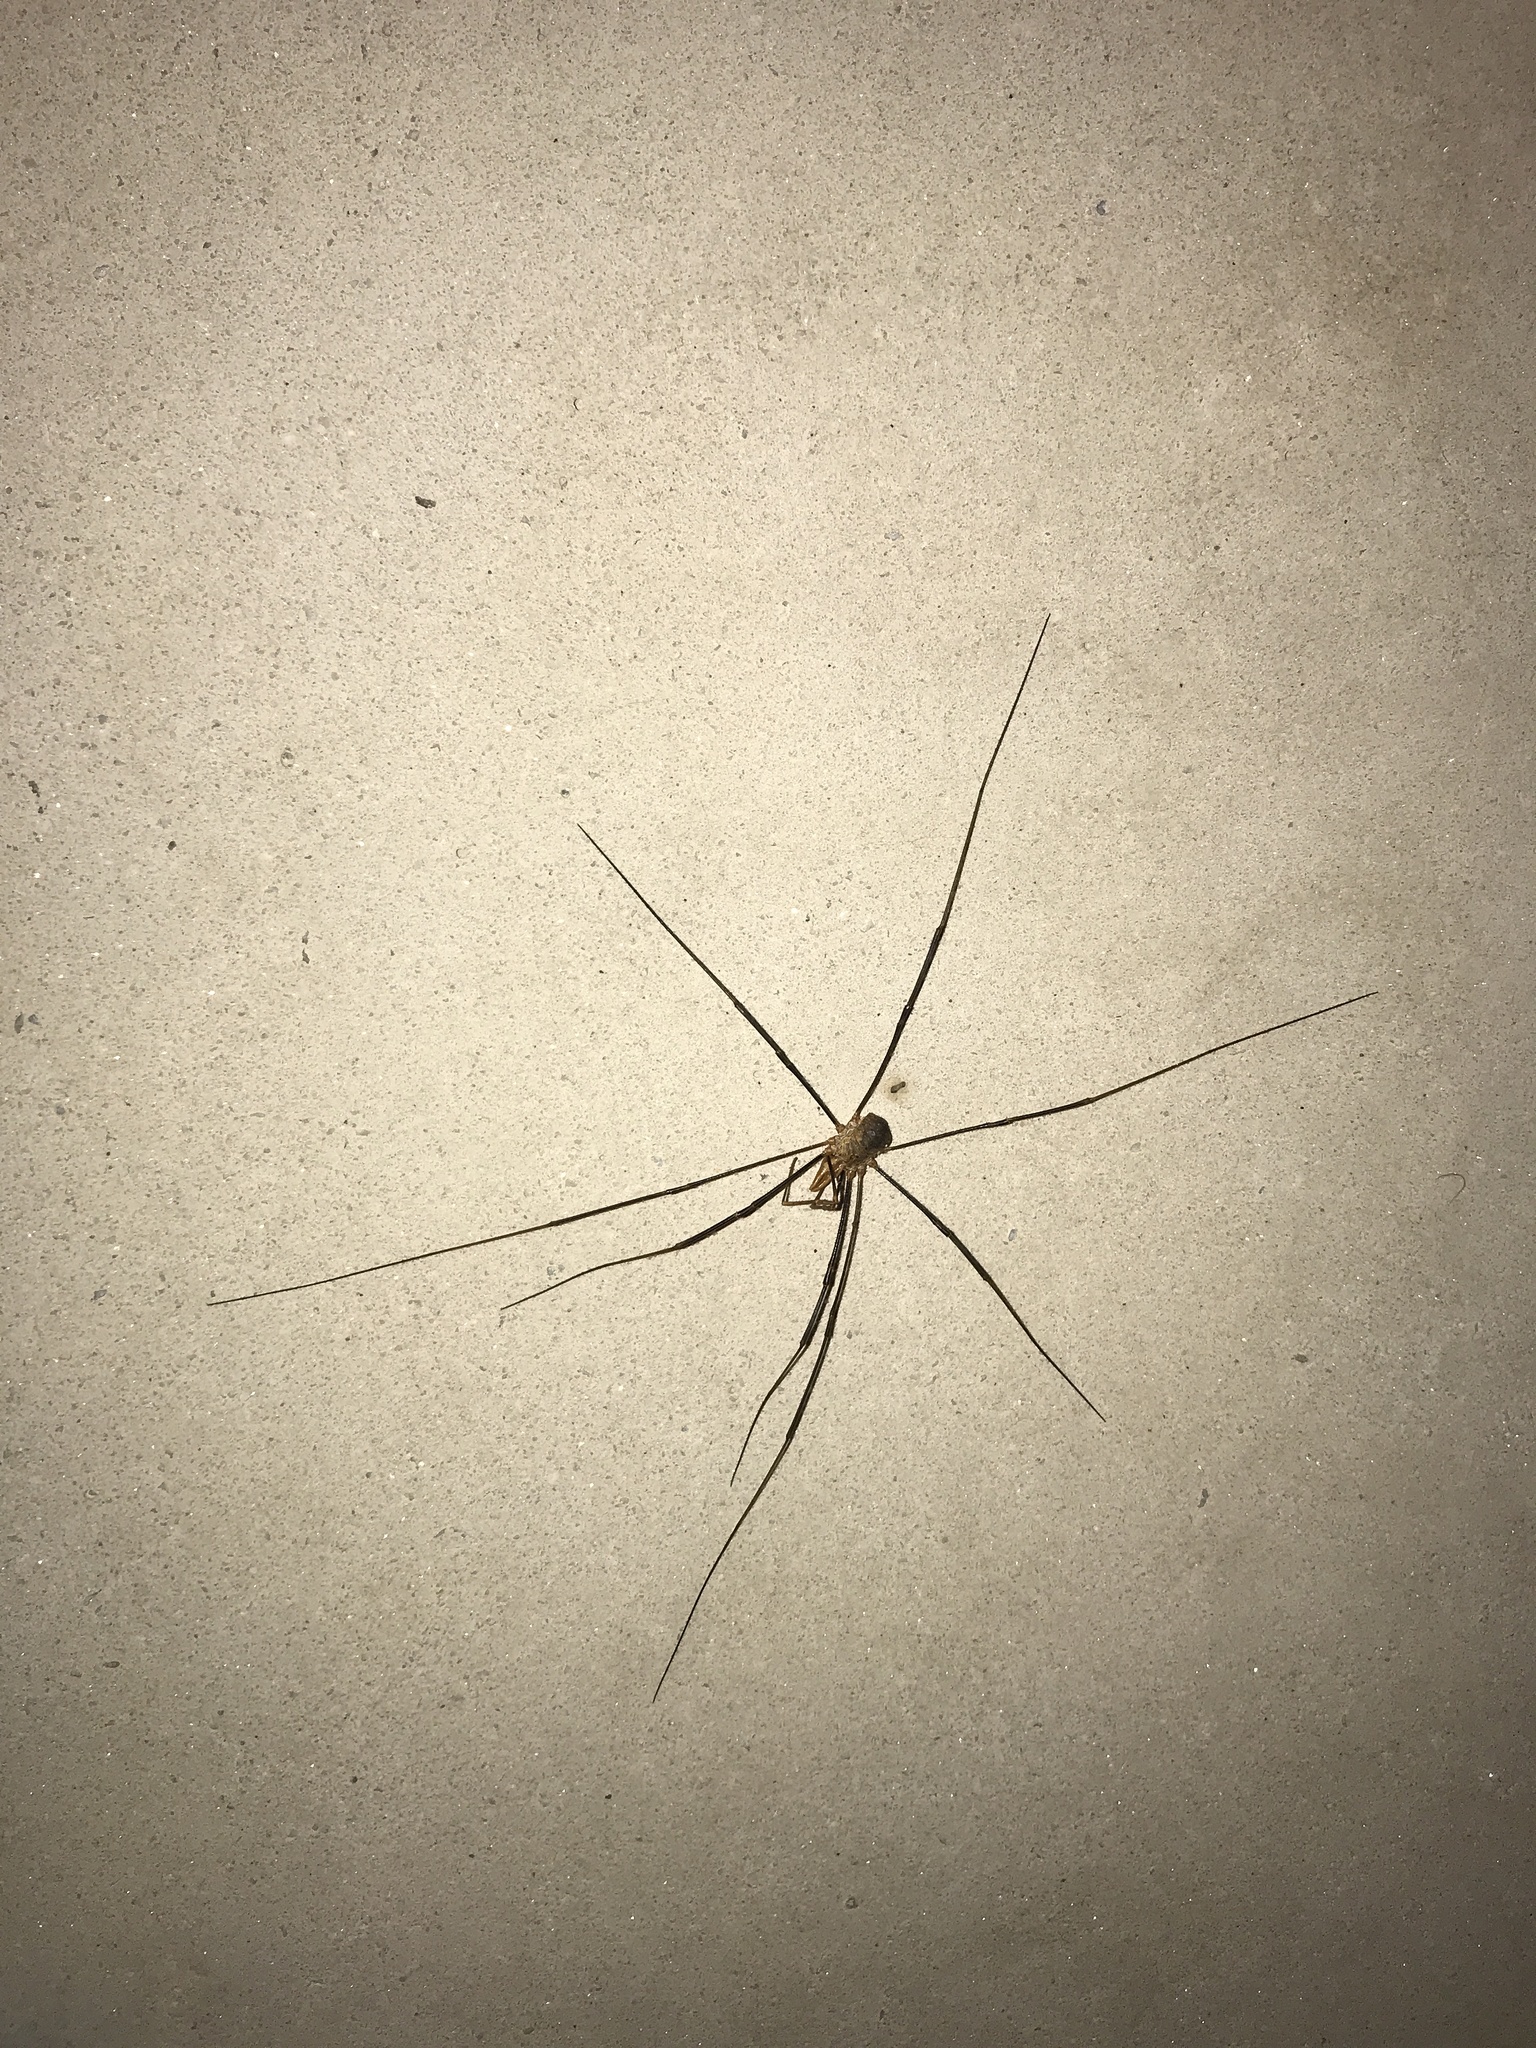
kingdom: Animalia
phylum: Arthropoda
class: Arachnida
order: Opiliones
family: Phalangiidae
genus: Phalangium
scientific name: Phalangium opilio
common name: Daddy longleg
